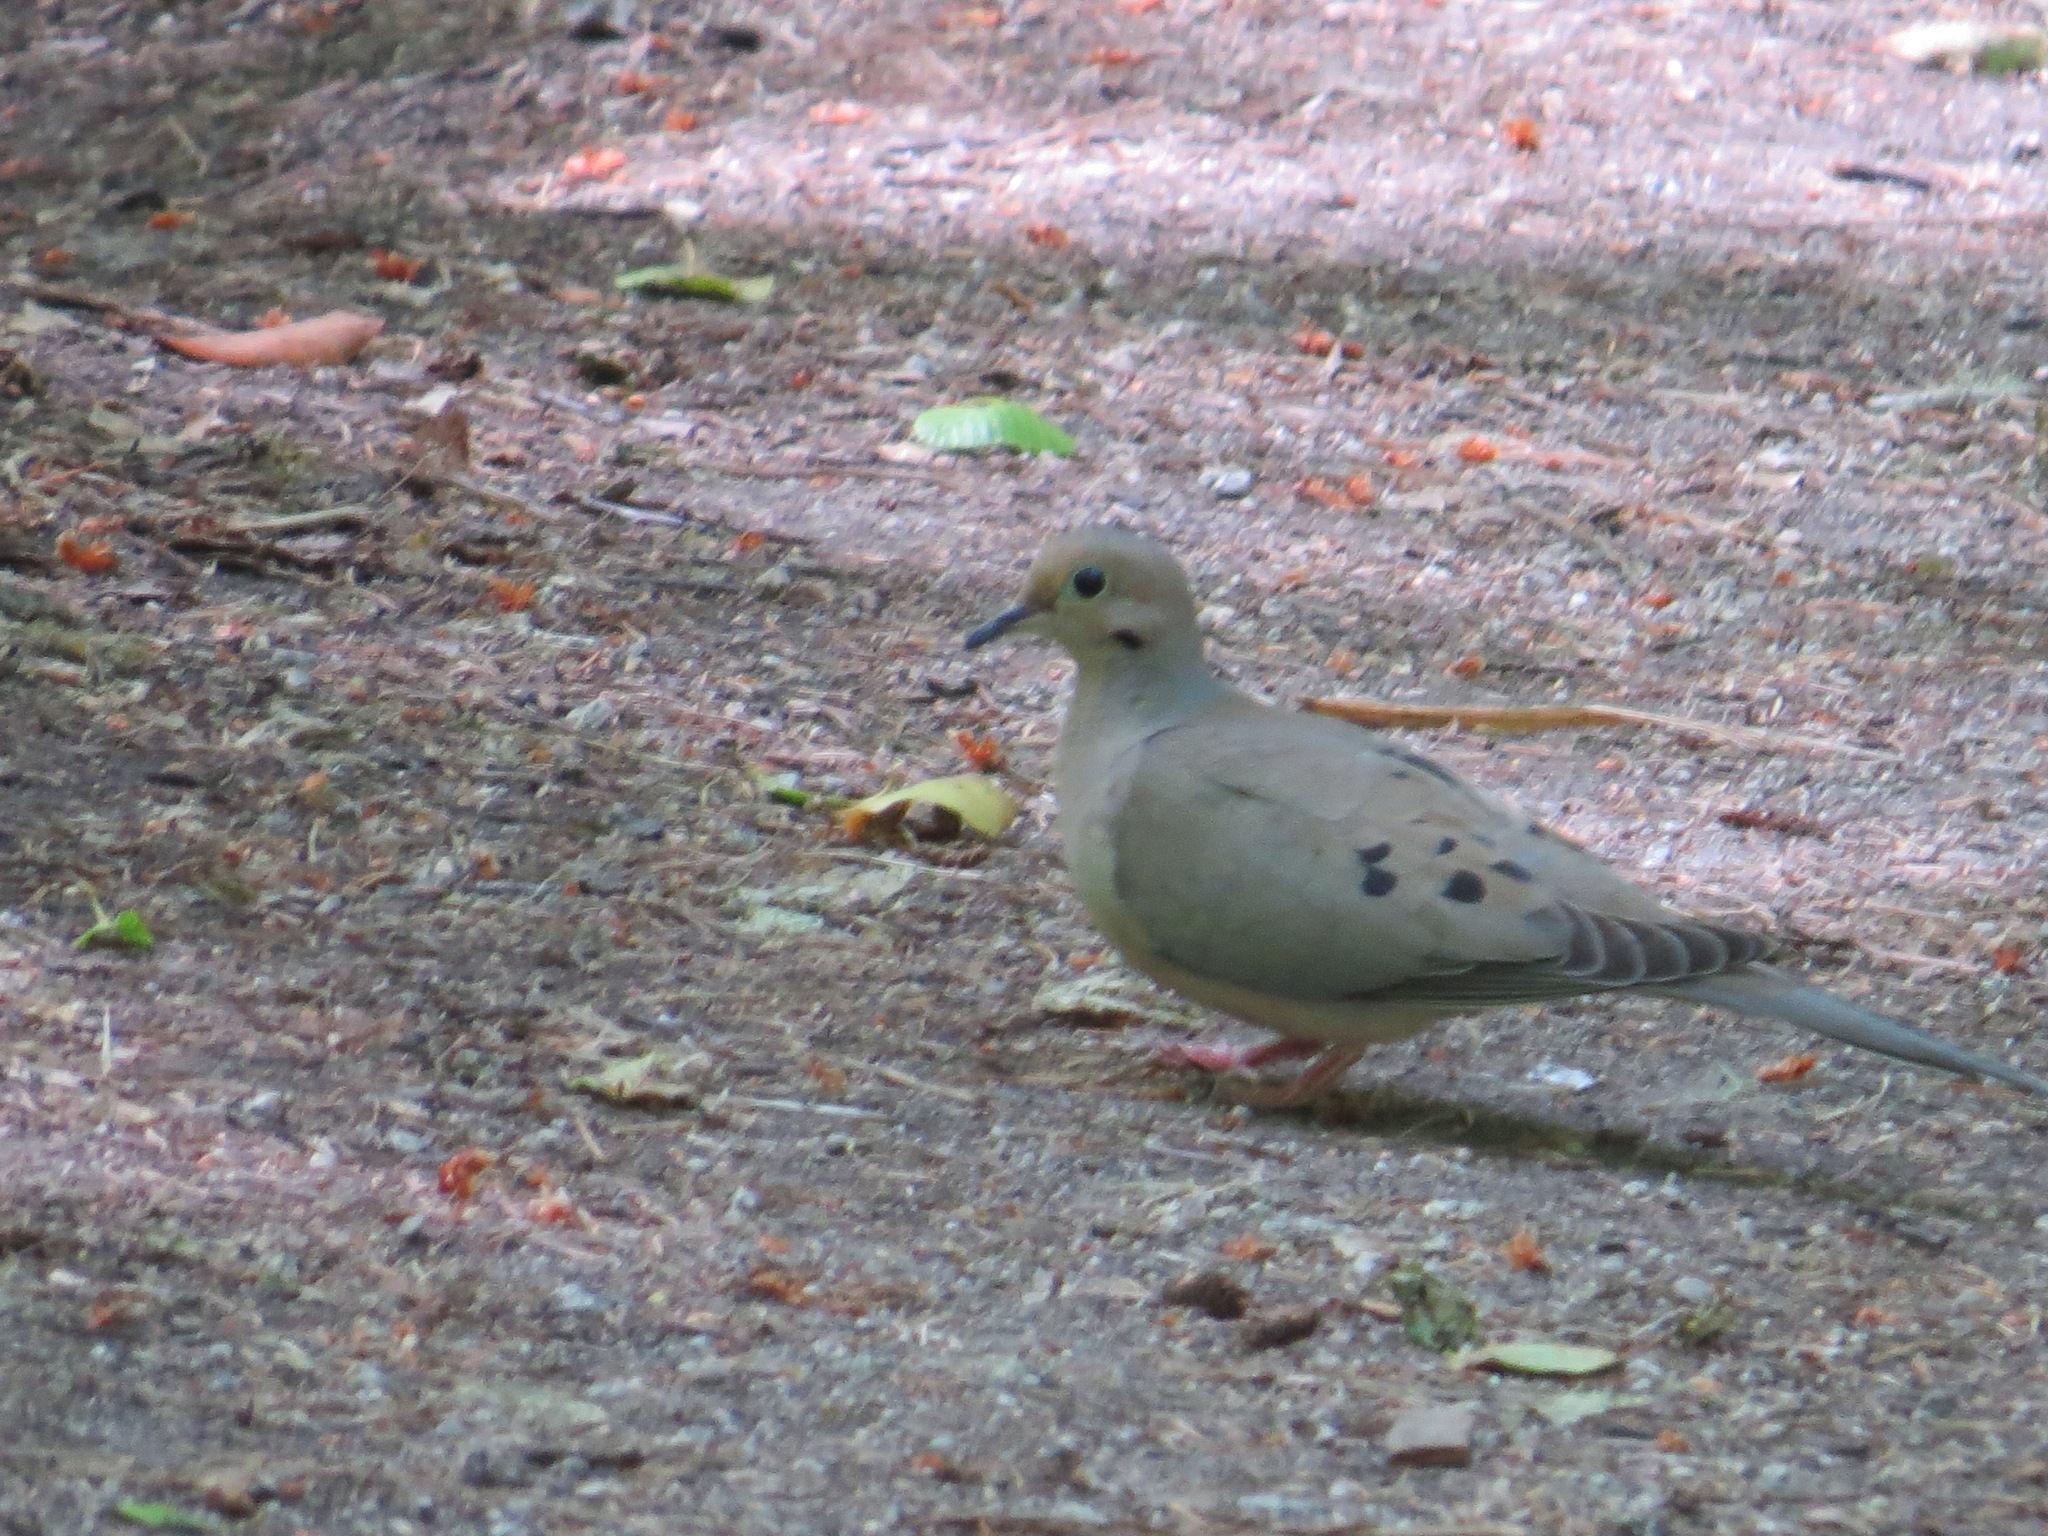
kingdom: Animalia
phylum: Chordata
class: Aves
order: Columbiformes
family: Columbidae
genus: Zenaida
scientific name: Zenaida macroura
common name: Mourning dove
